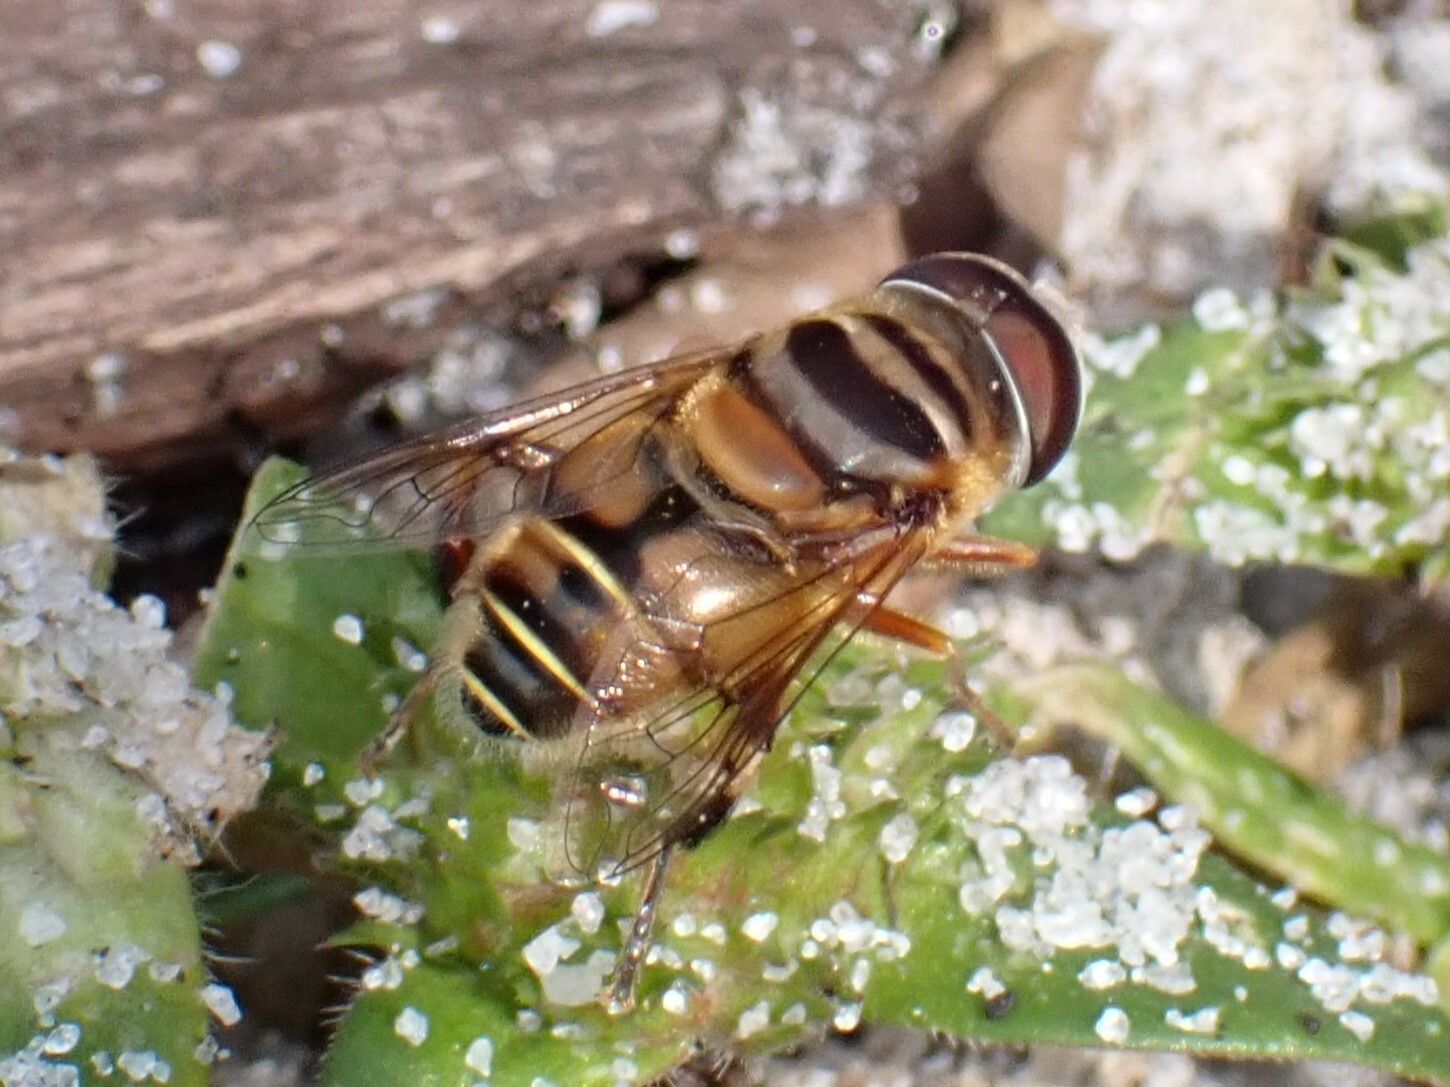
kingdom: Animalia
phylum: Arthropoda
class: Insecta
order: Diptera
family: Syrphidae
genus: Palpada
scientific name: Palpada vinetorum
